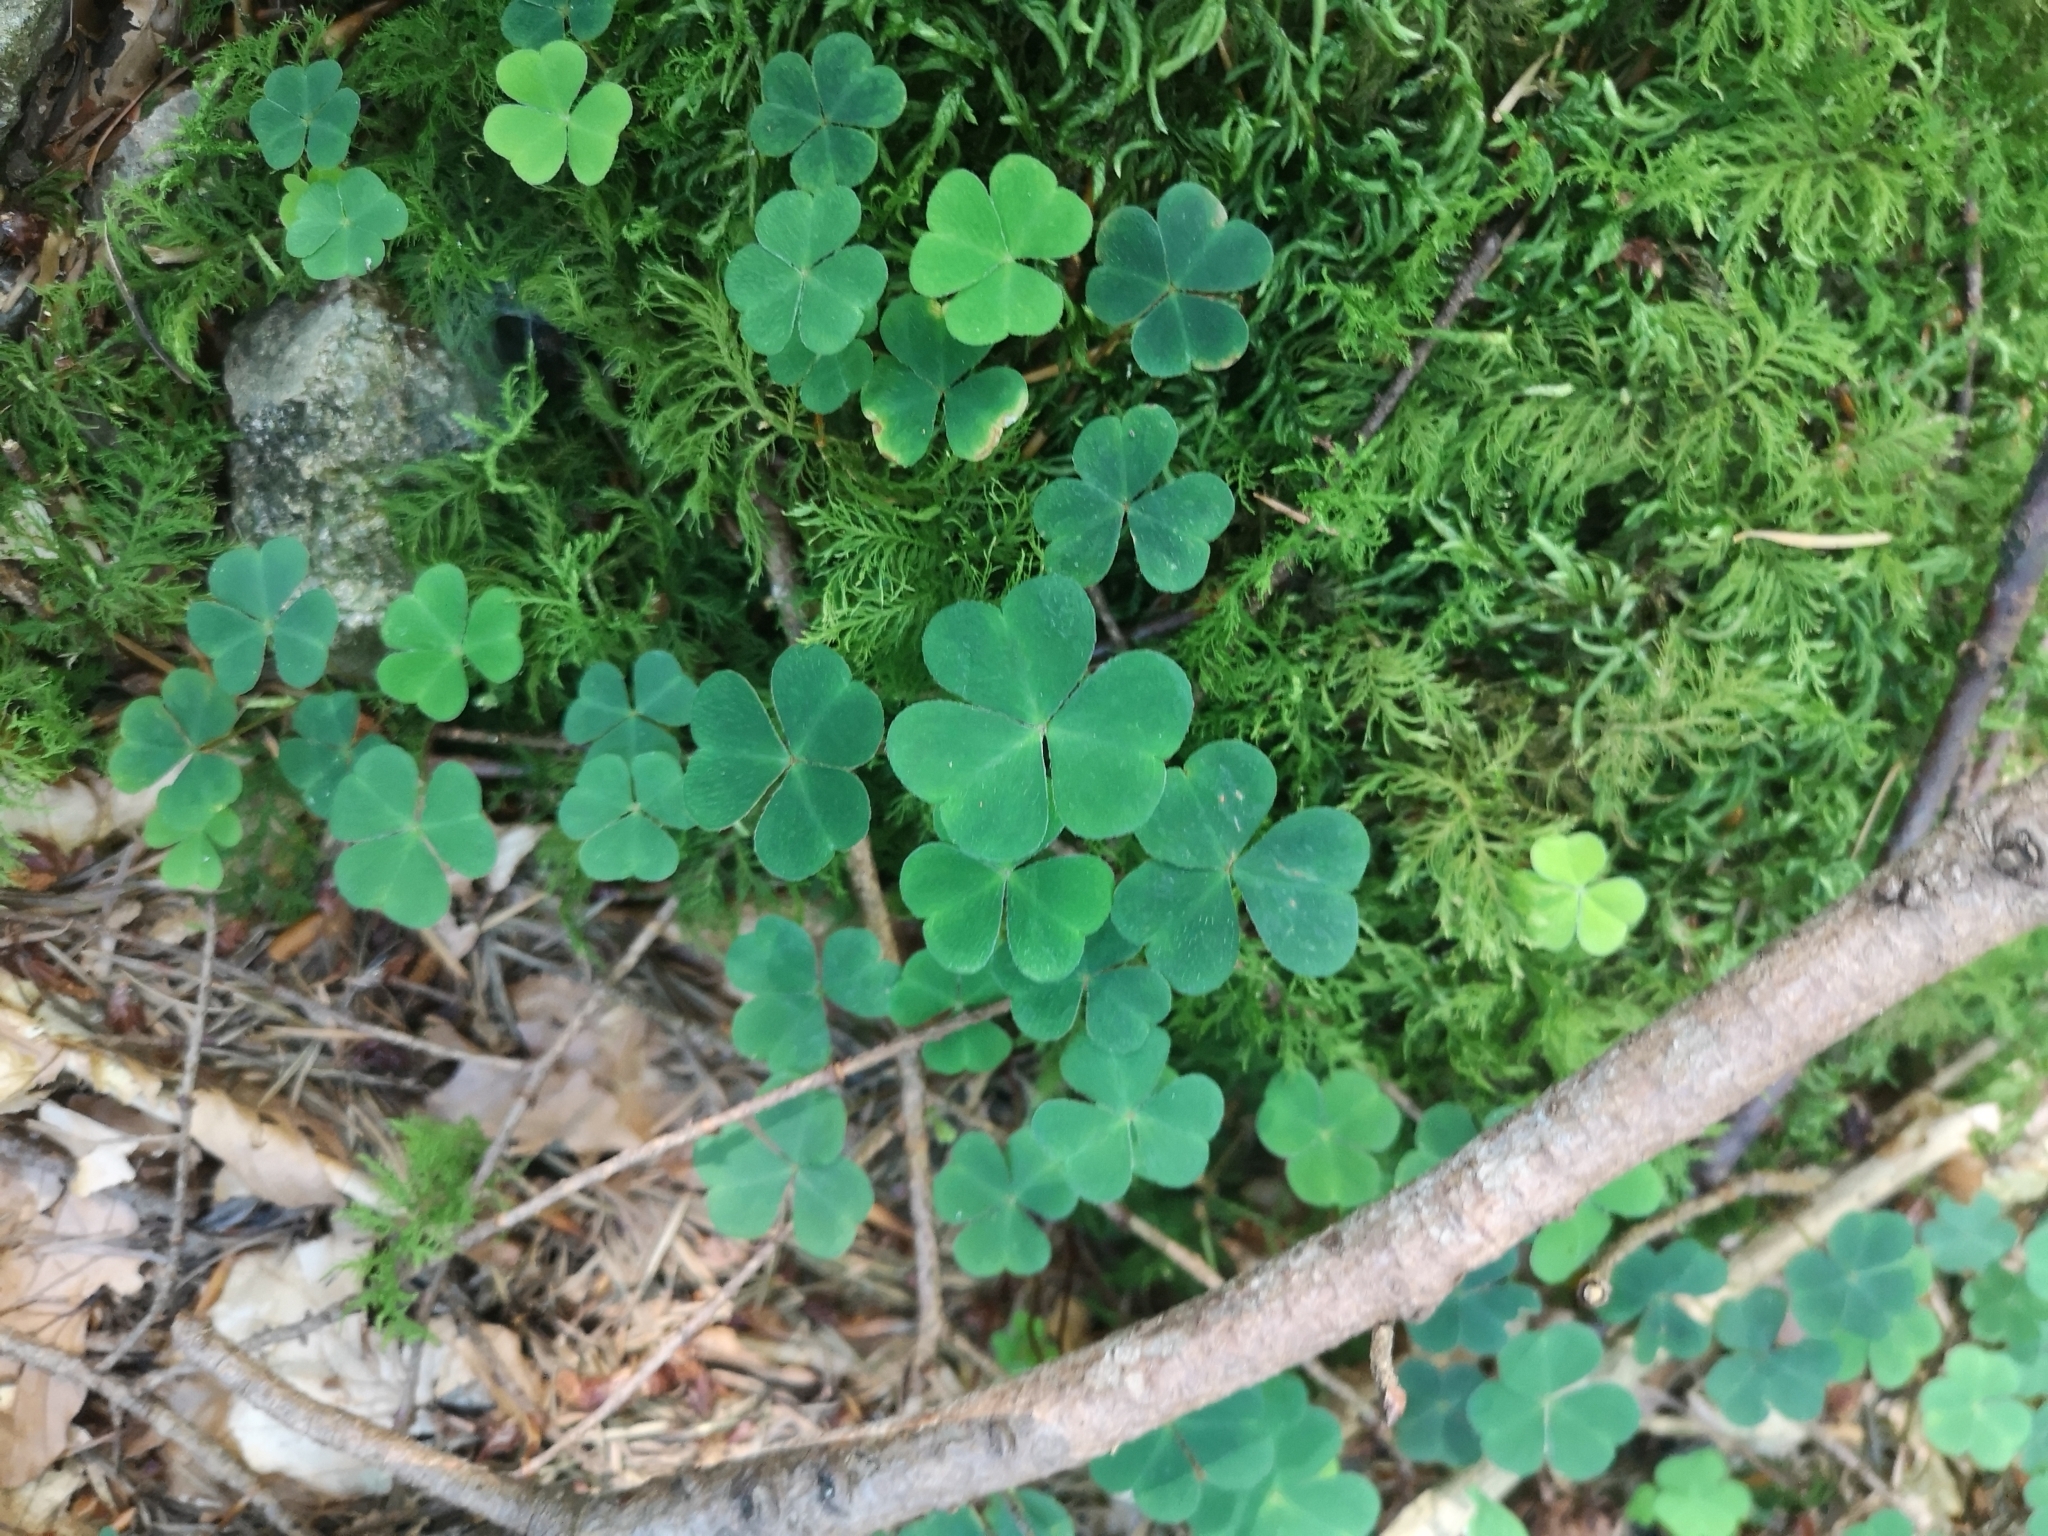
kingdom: Plantae
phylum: Tracheophyta
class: Magnoliopsida
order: Oxalidales
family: Oxalidaceae
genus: Oxalis
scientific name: Oxalis acetosella
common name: Wood-sorrel
